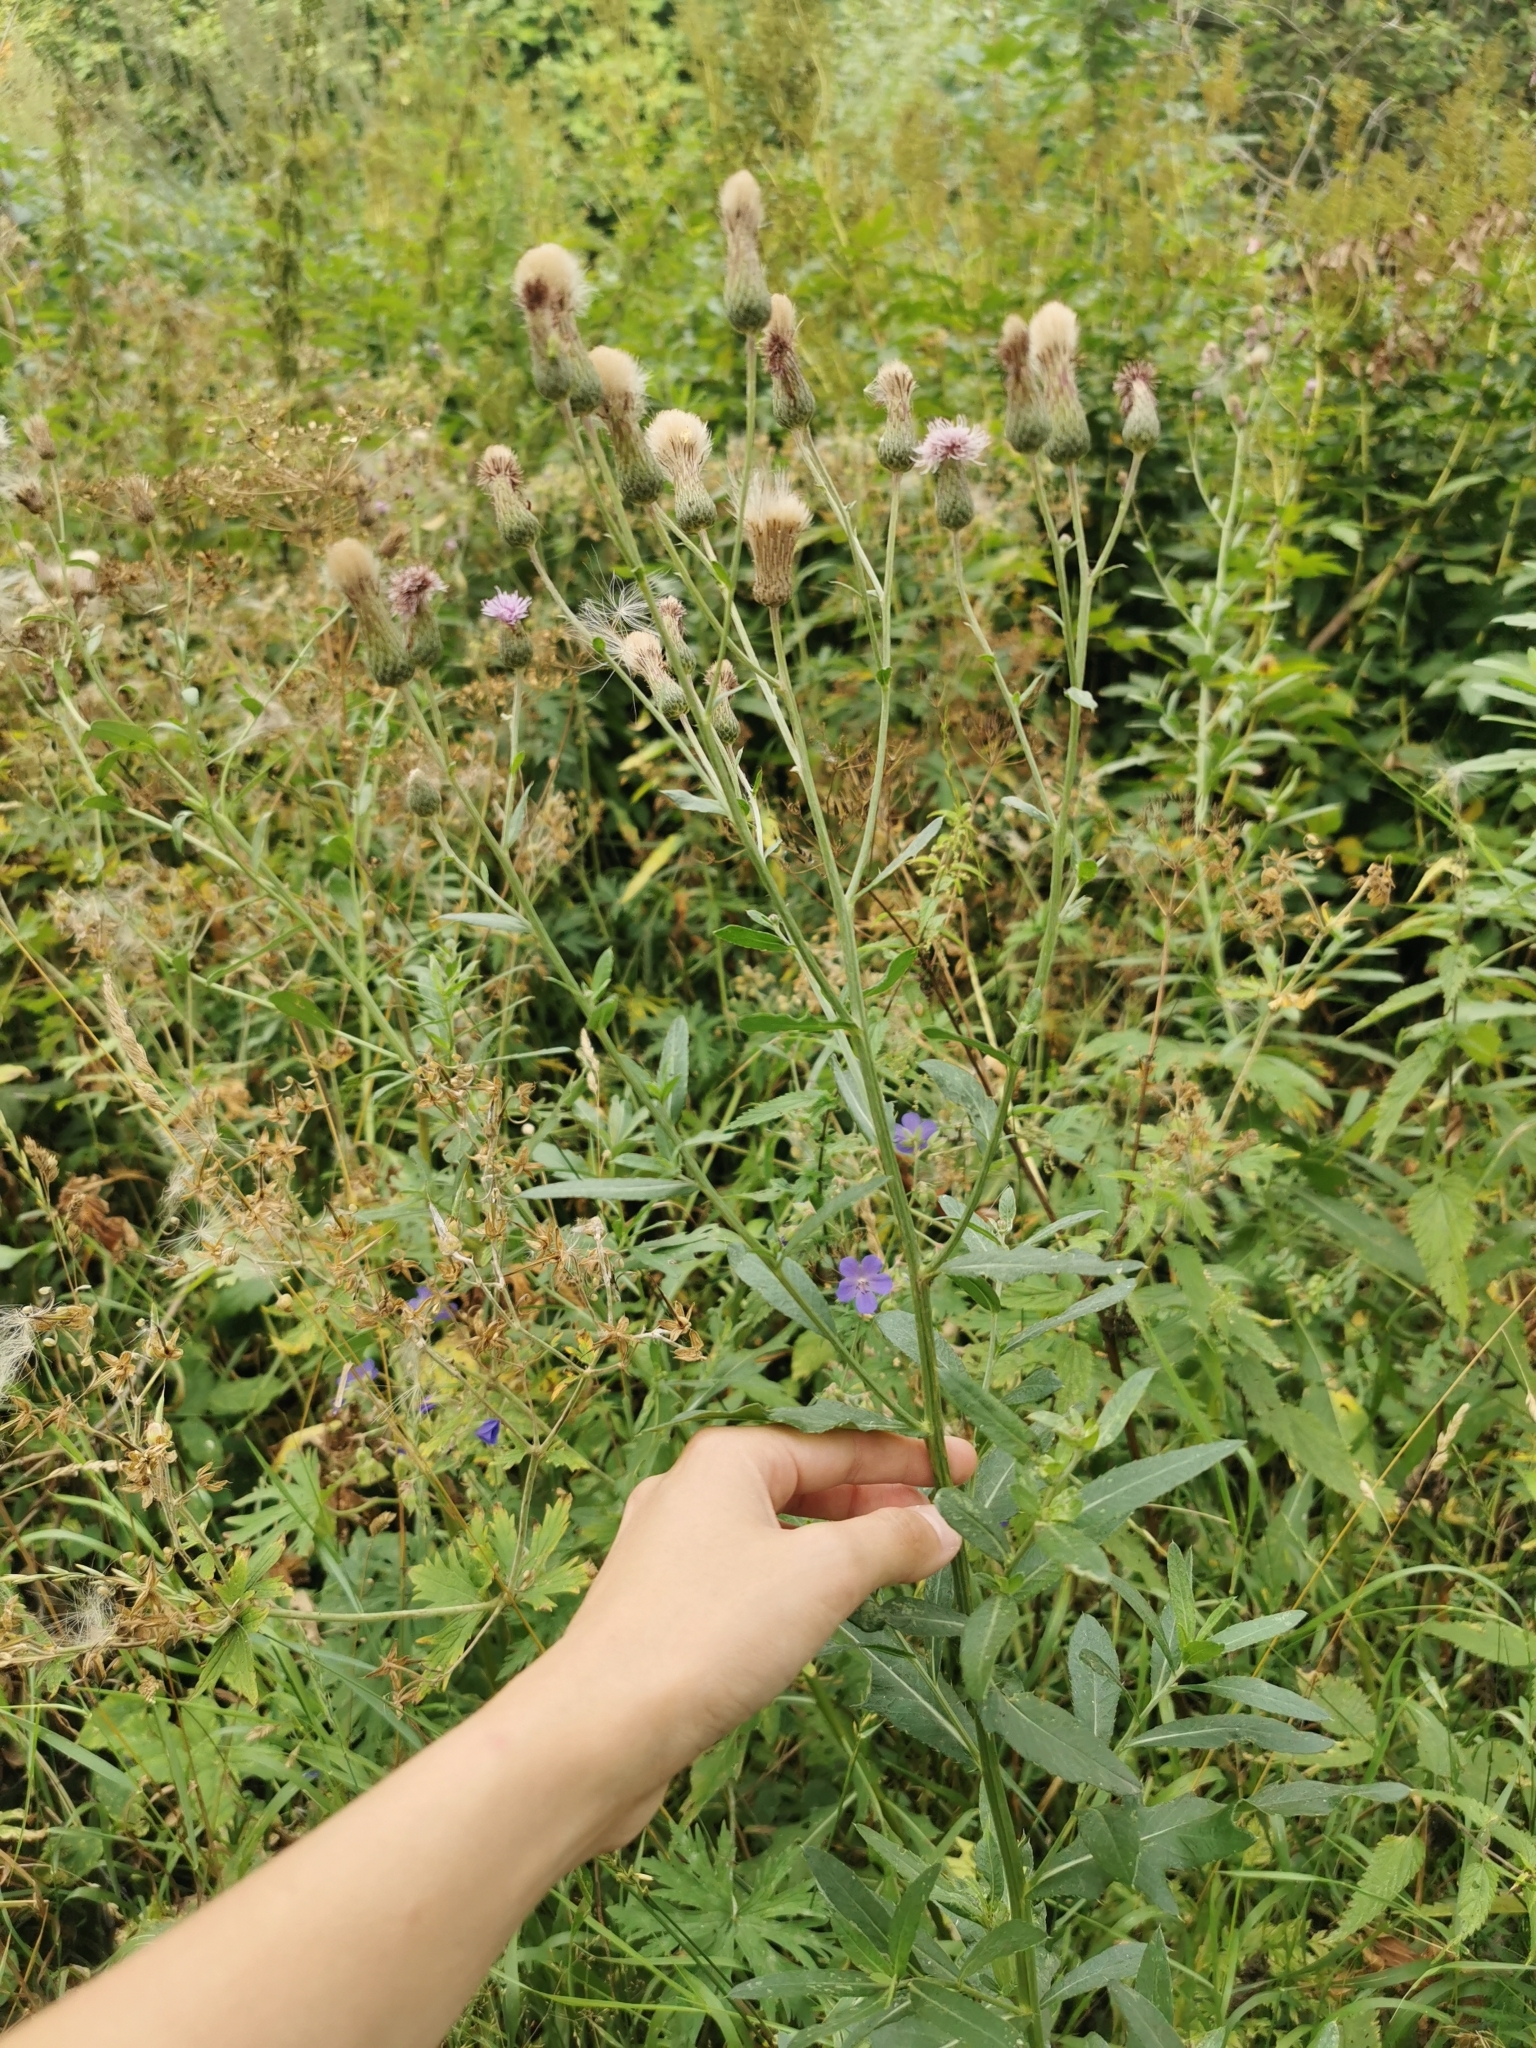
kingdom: Plantae
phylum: Tracheophyta
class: Magnoliopsida
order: Asterales
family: Asteraceae
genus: Cirsium
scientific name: Cirsium arvense
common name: Creeping thistle
